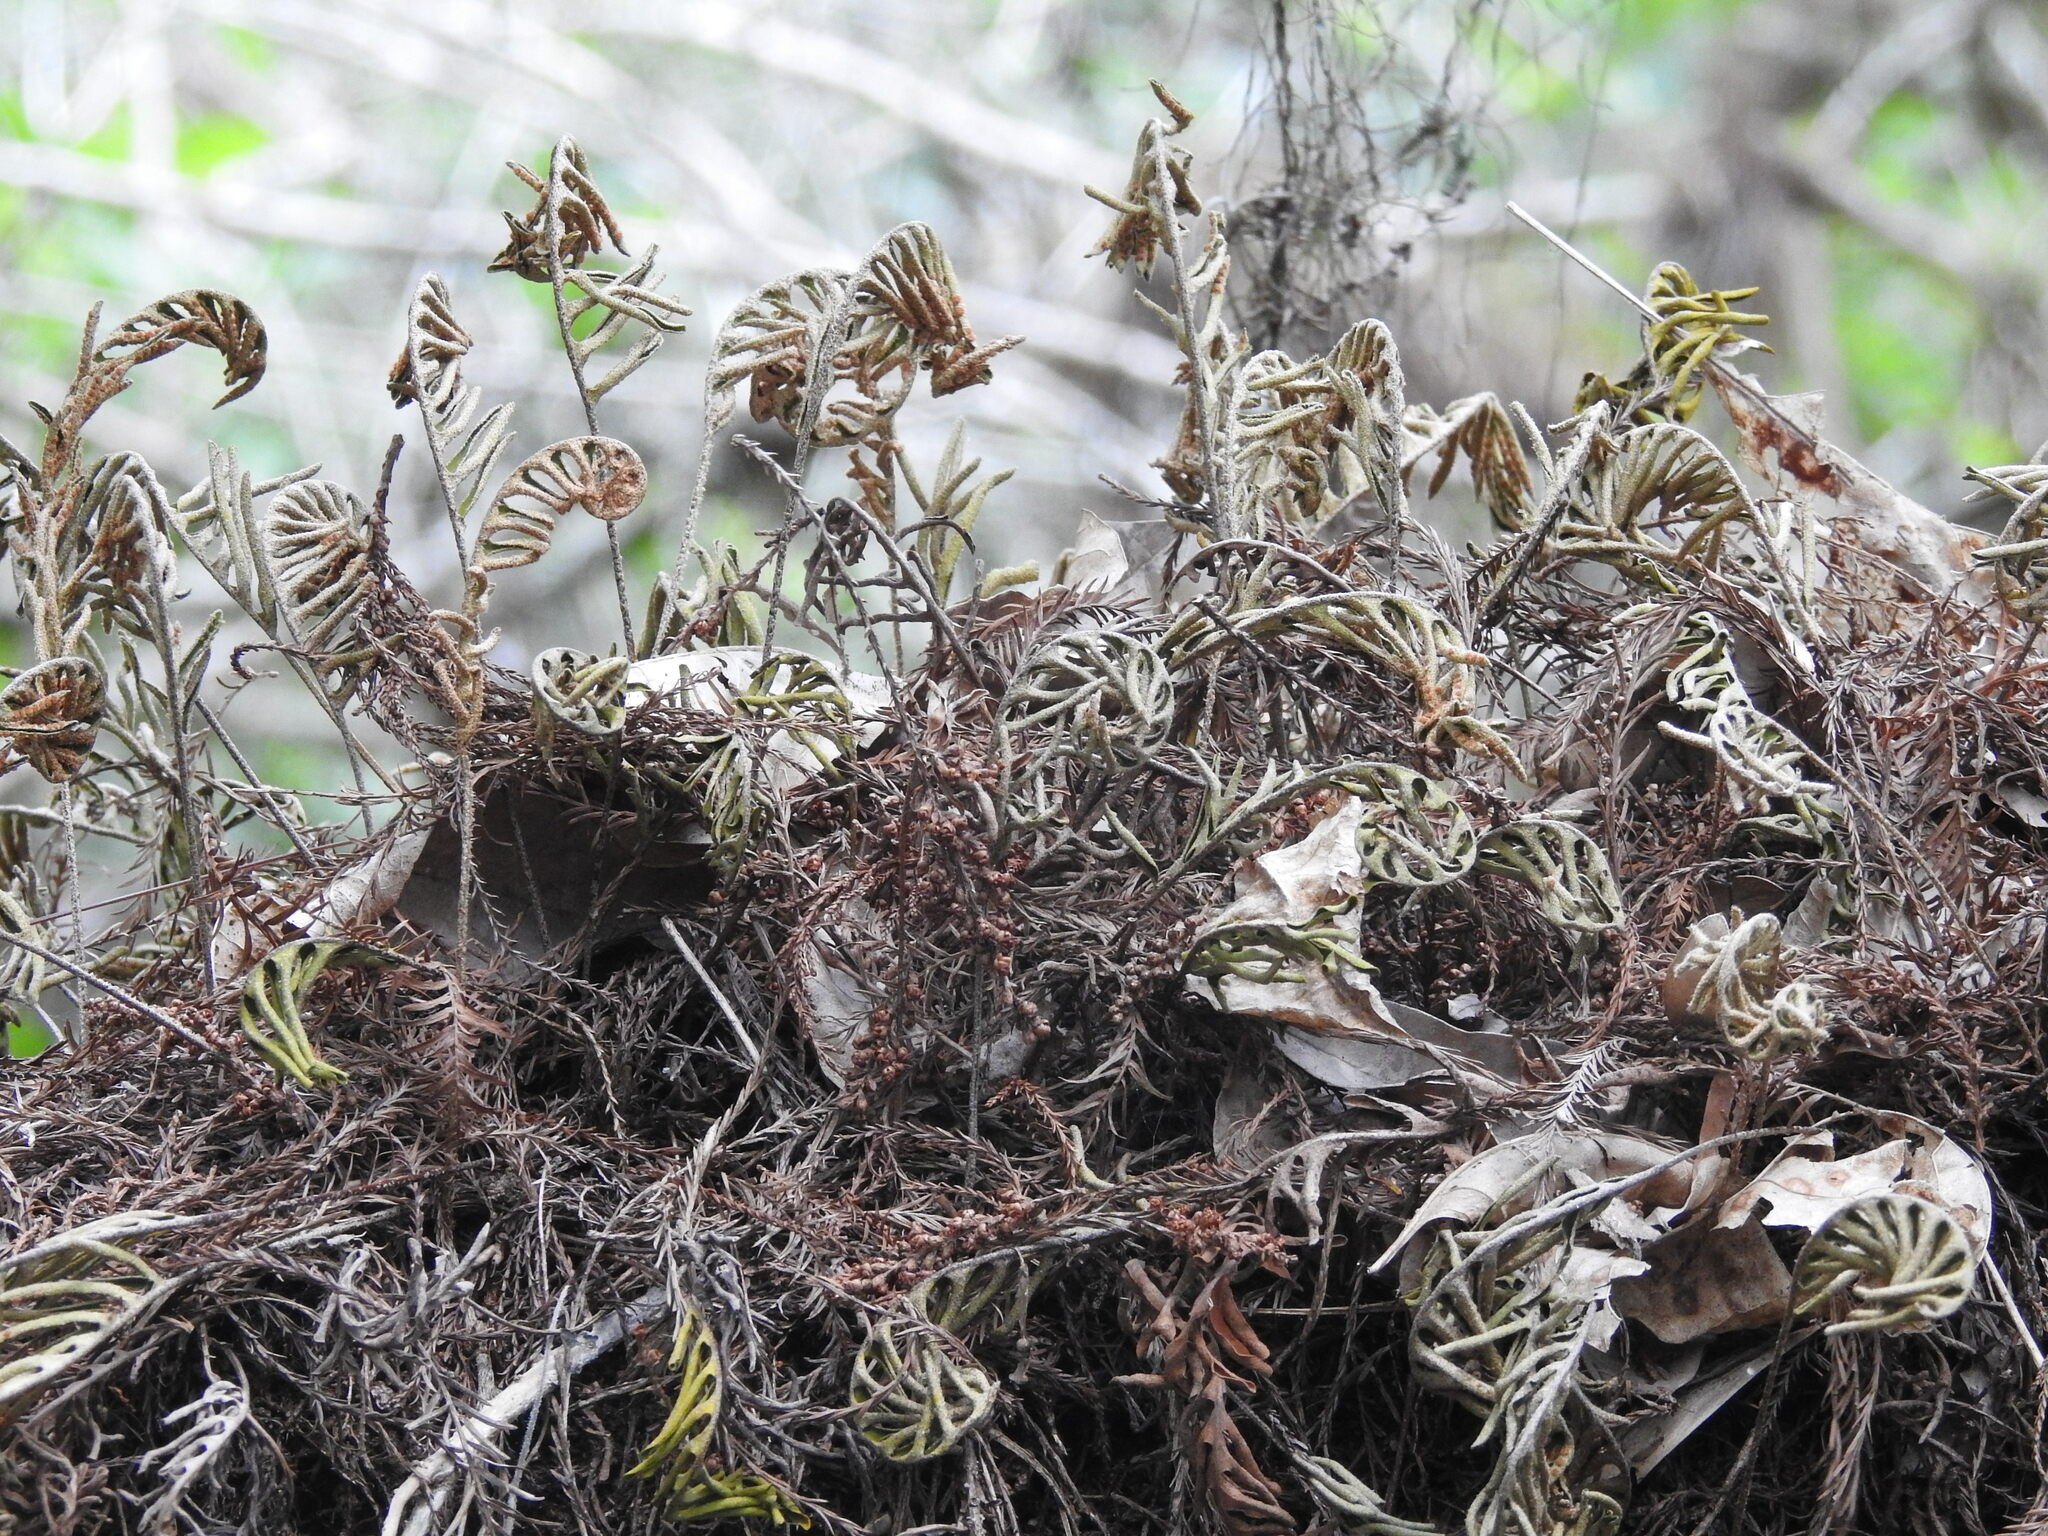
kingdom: Plantae
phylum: Tracheophyta
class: Polypodiopsida
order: Polypodiales
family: Polypodiaceae
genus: Pleopeltis
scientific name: Pleopeltis michauxiana
